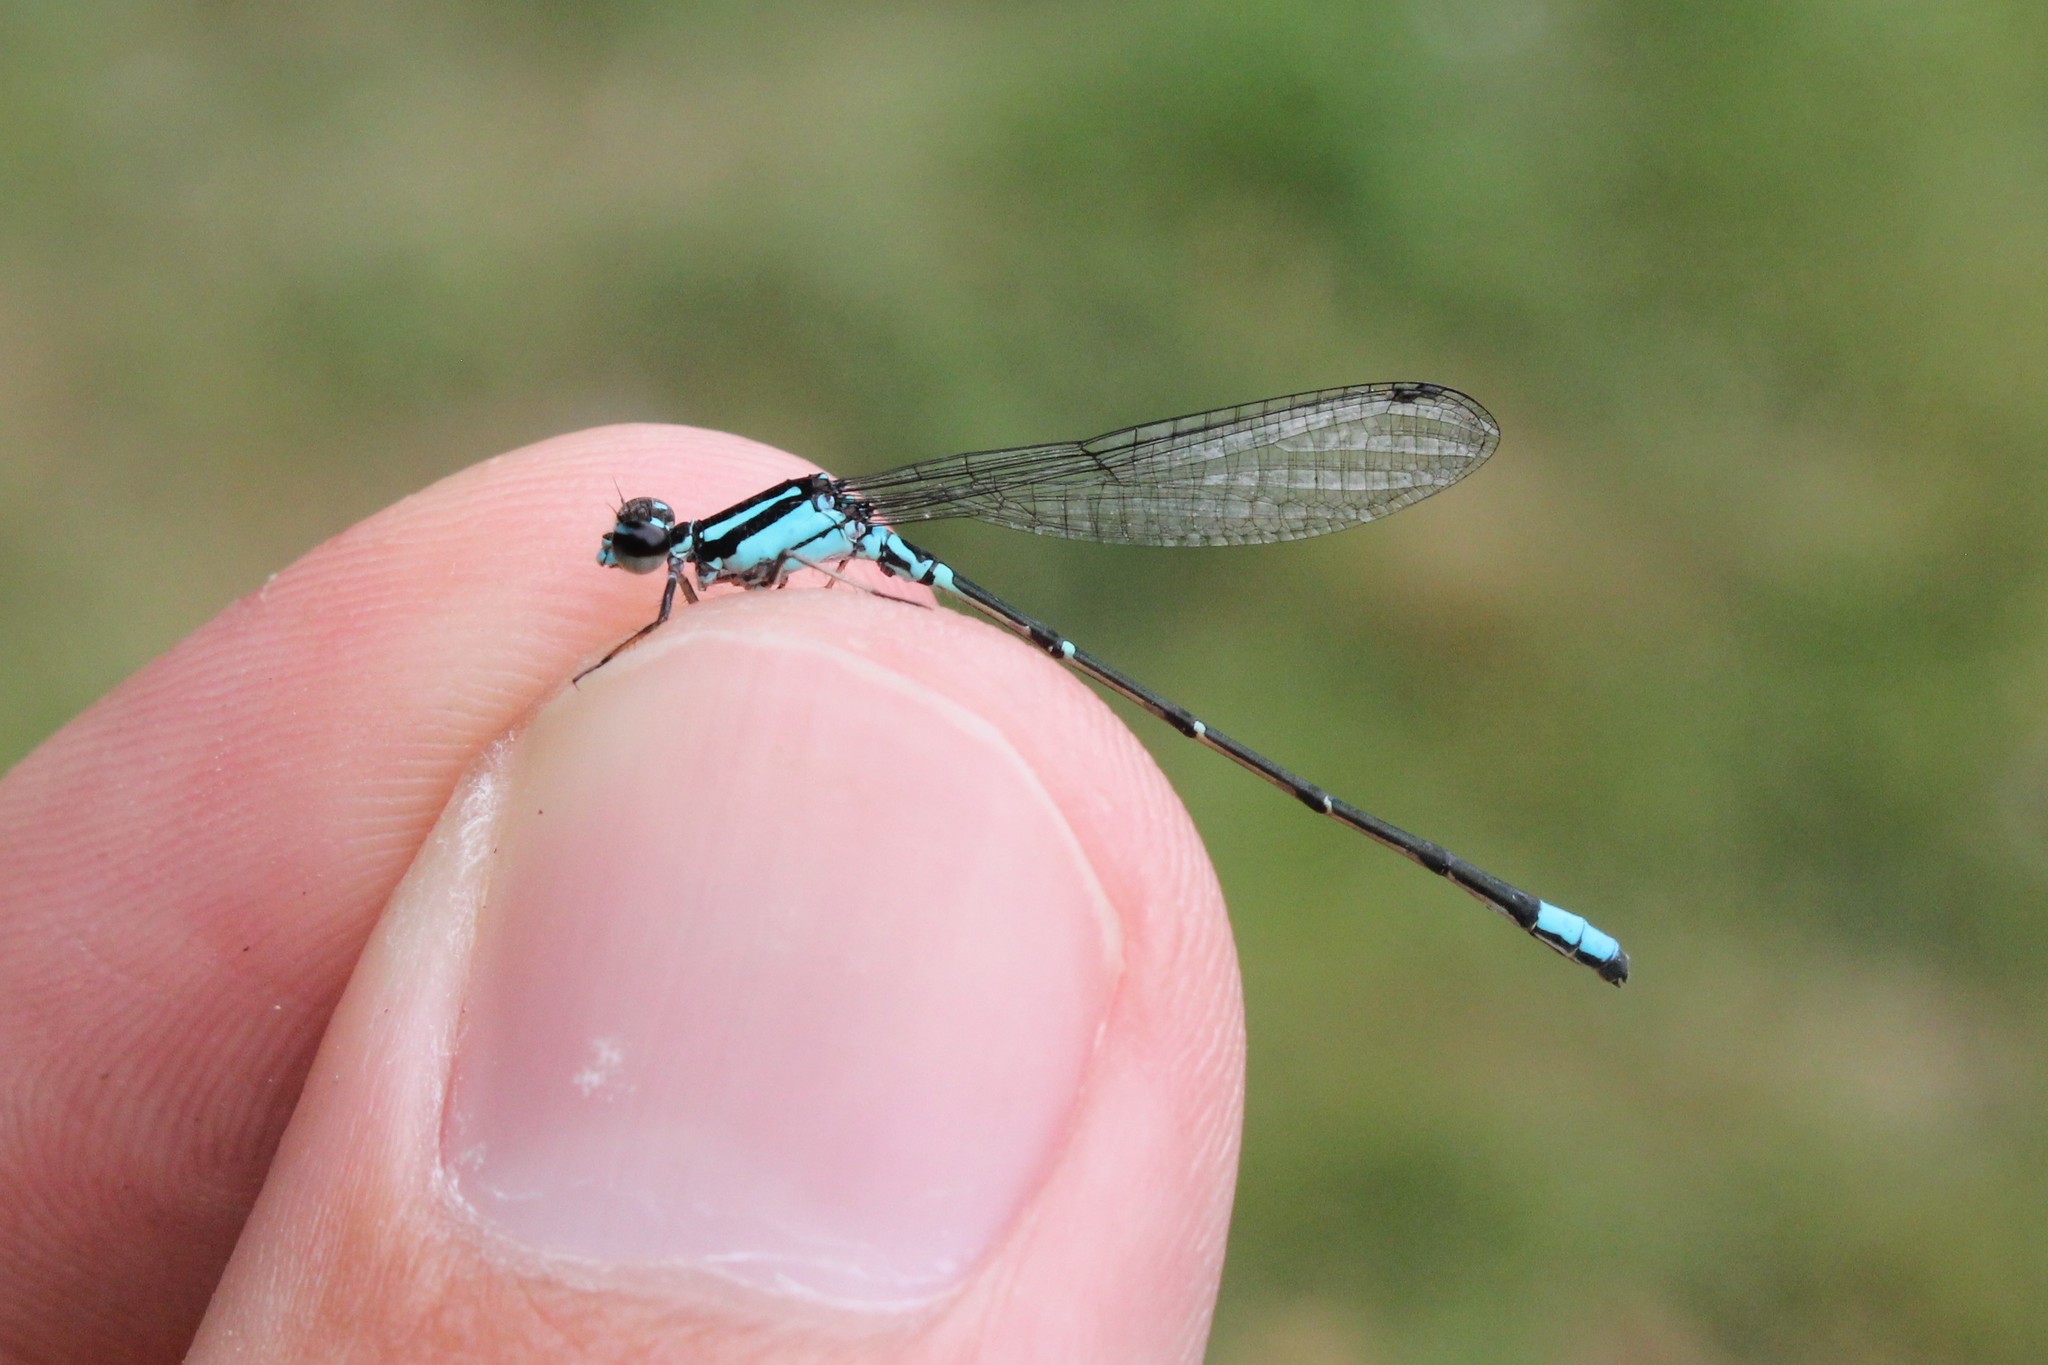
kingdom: Animalia
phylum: Arthropoda
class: Insecta
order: Odonata
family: Coenagrionidae
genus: Enallagma
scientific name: Enallagma geminatum
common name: Skimming bluet
